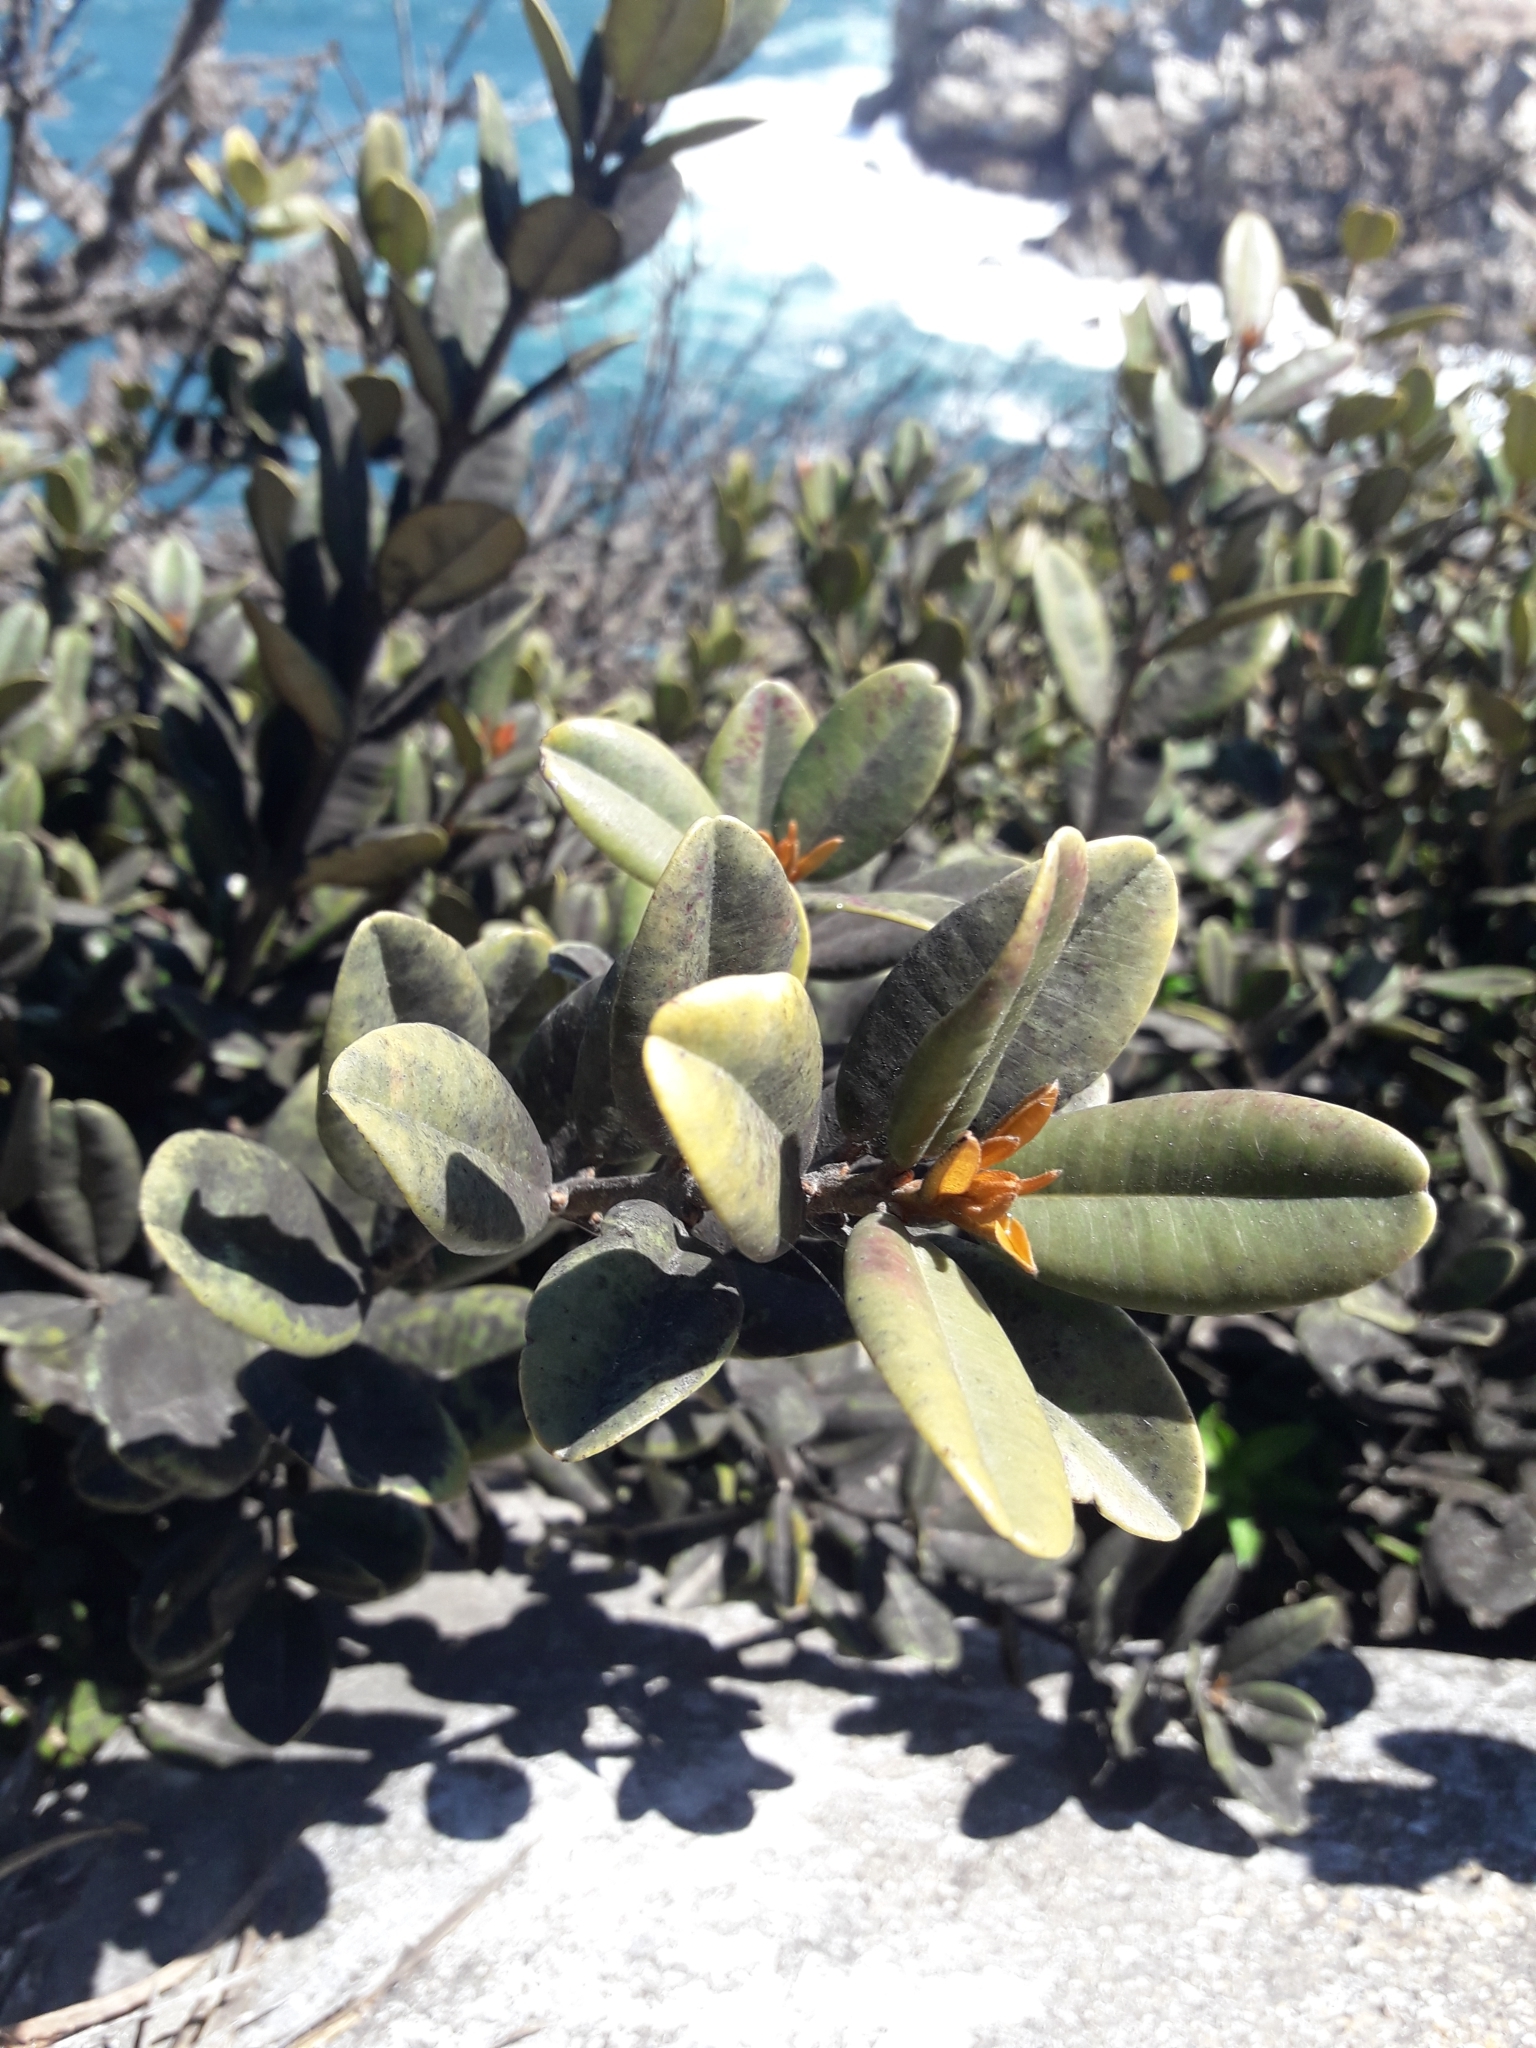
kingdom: Plantae
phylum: Tracheophyta
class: Magnoliopsida
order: Ericales
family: Sapotaceae
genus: Pouteria
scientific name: Pouteria valparadisaea
